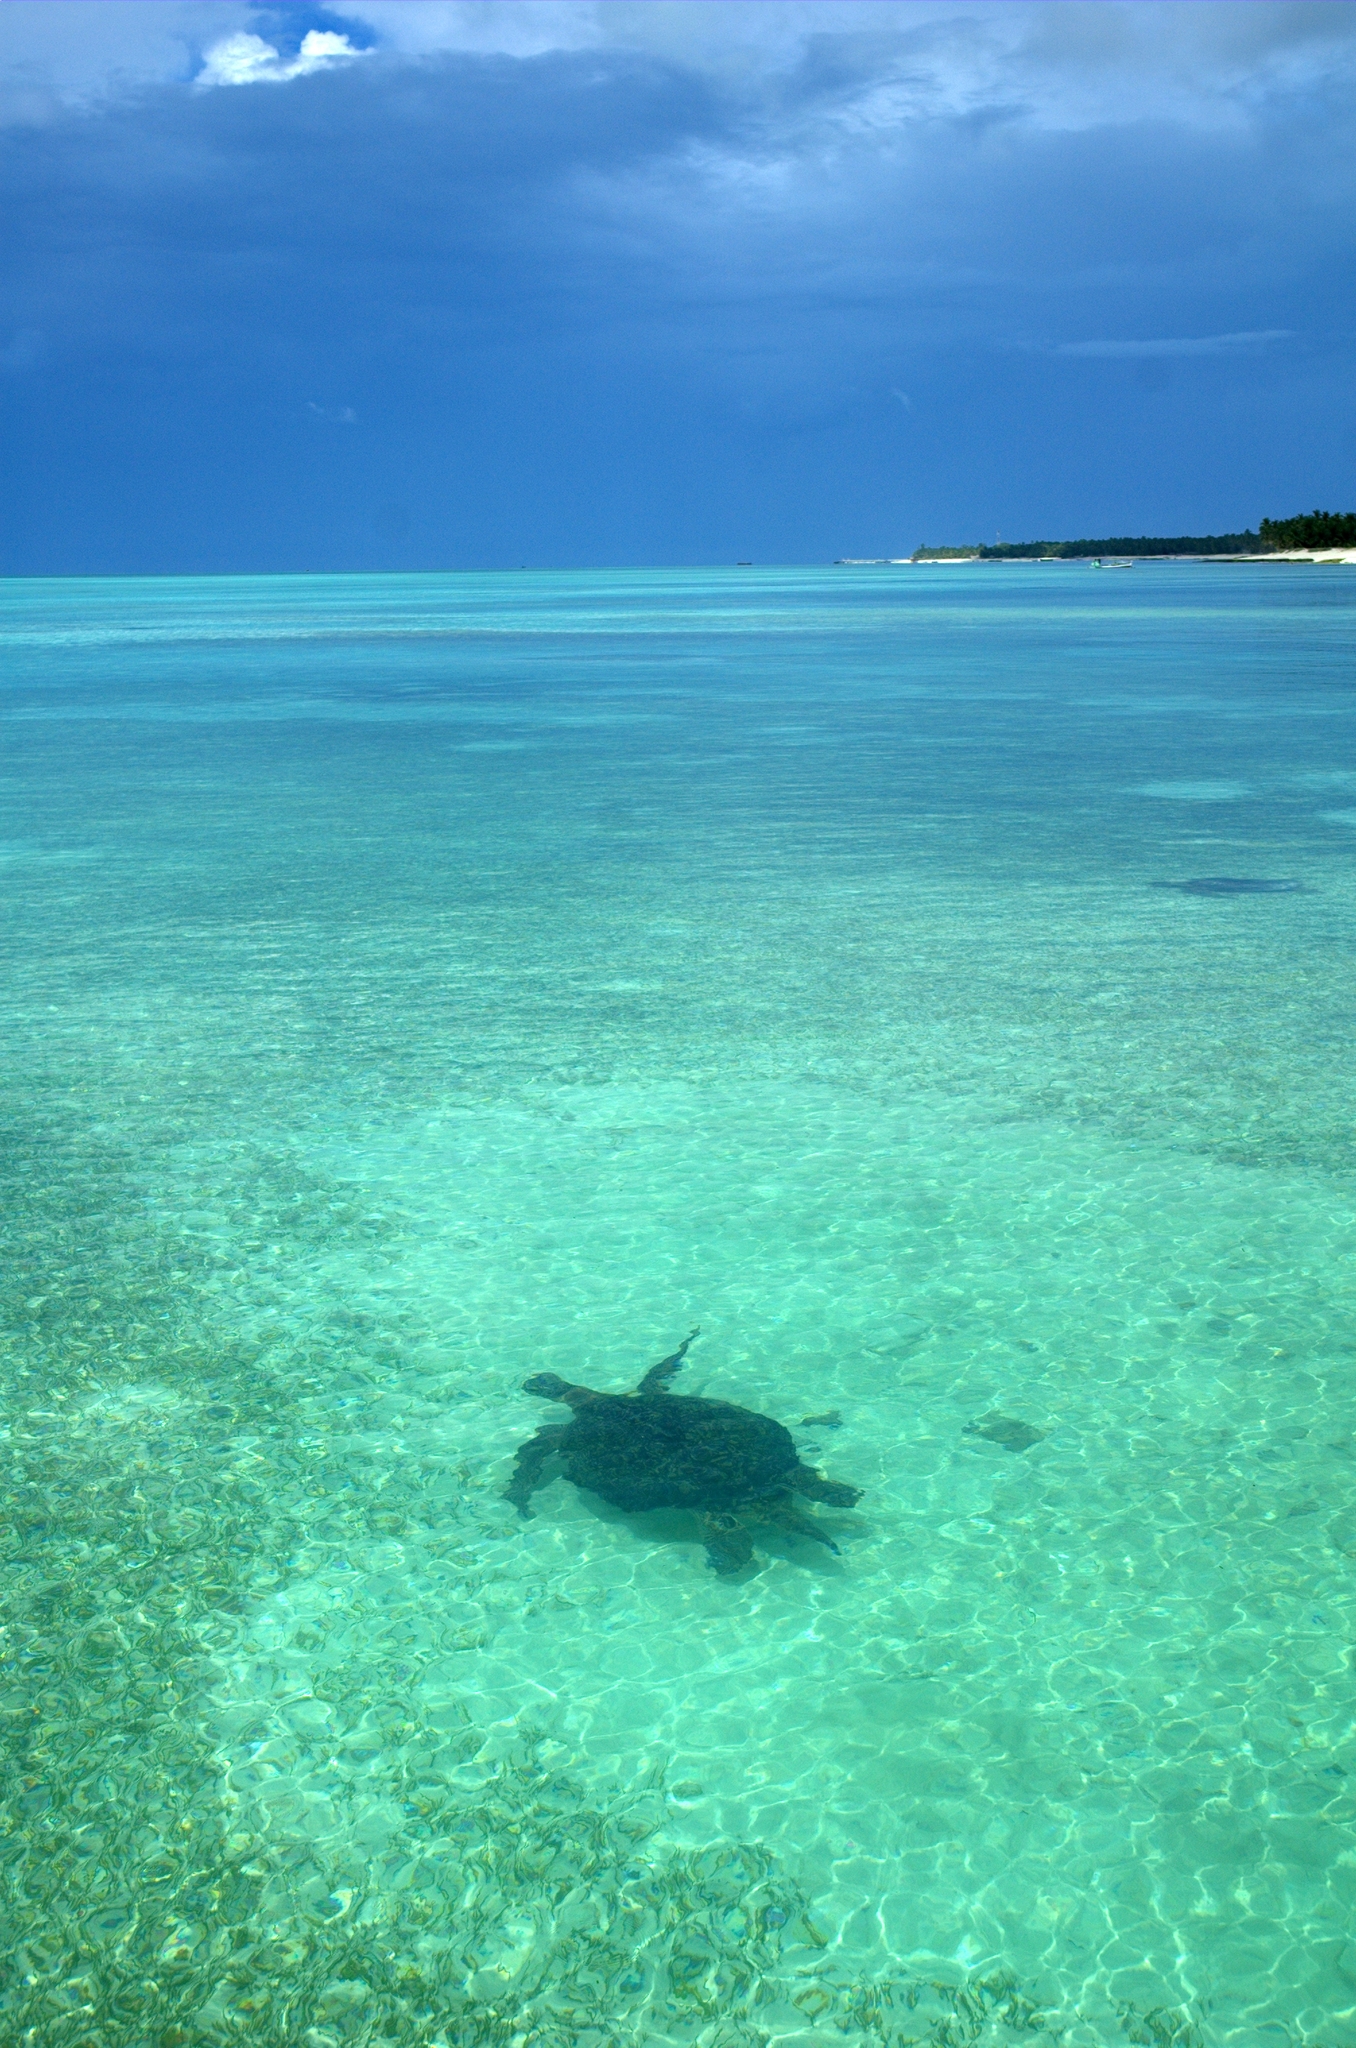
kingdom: Animalia
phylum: Chordata
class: Testudines
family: Cheloniidae
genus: Chelonia
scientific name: Chelonia mydas
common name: Green turtle
